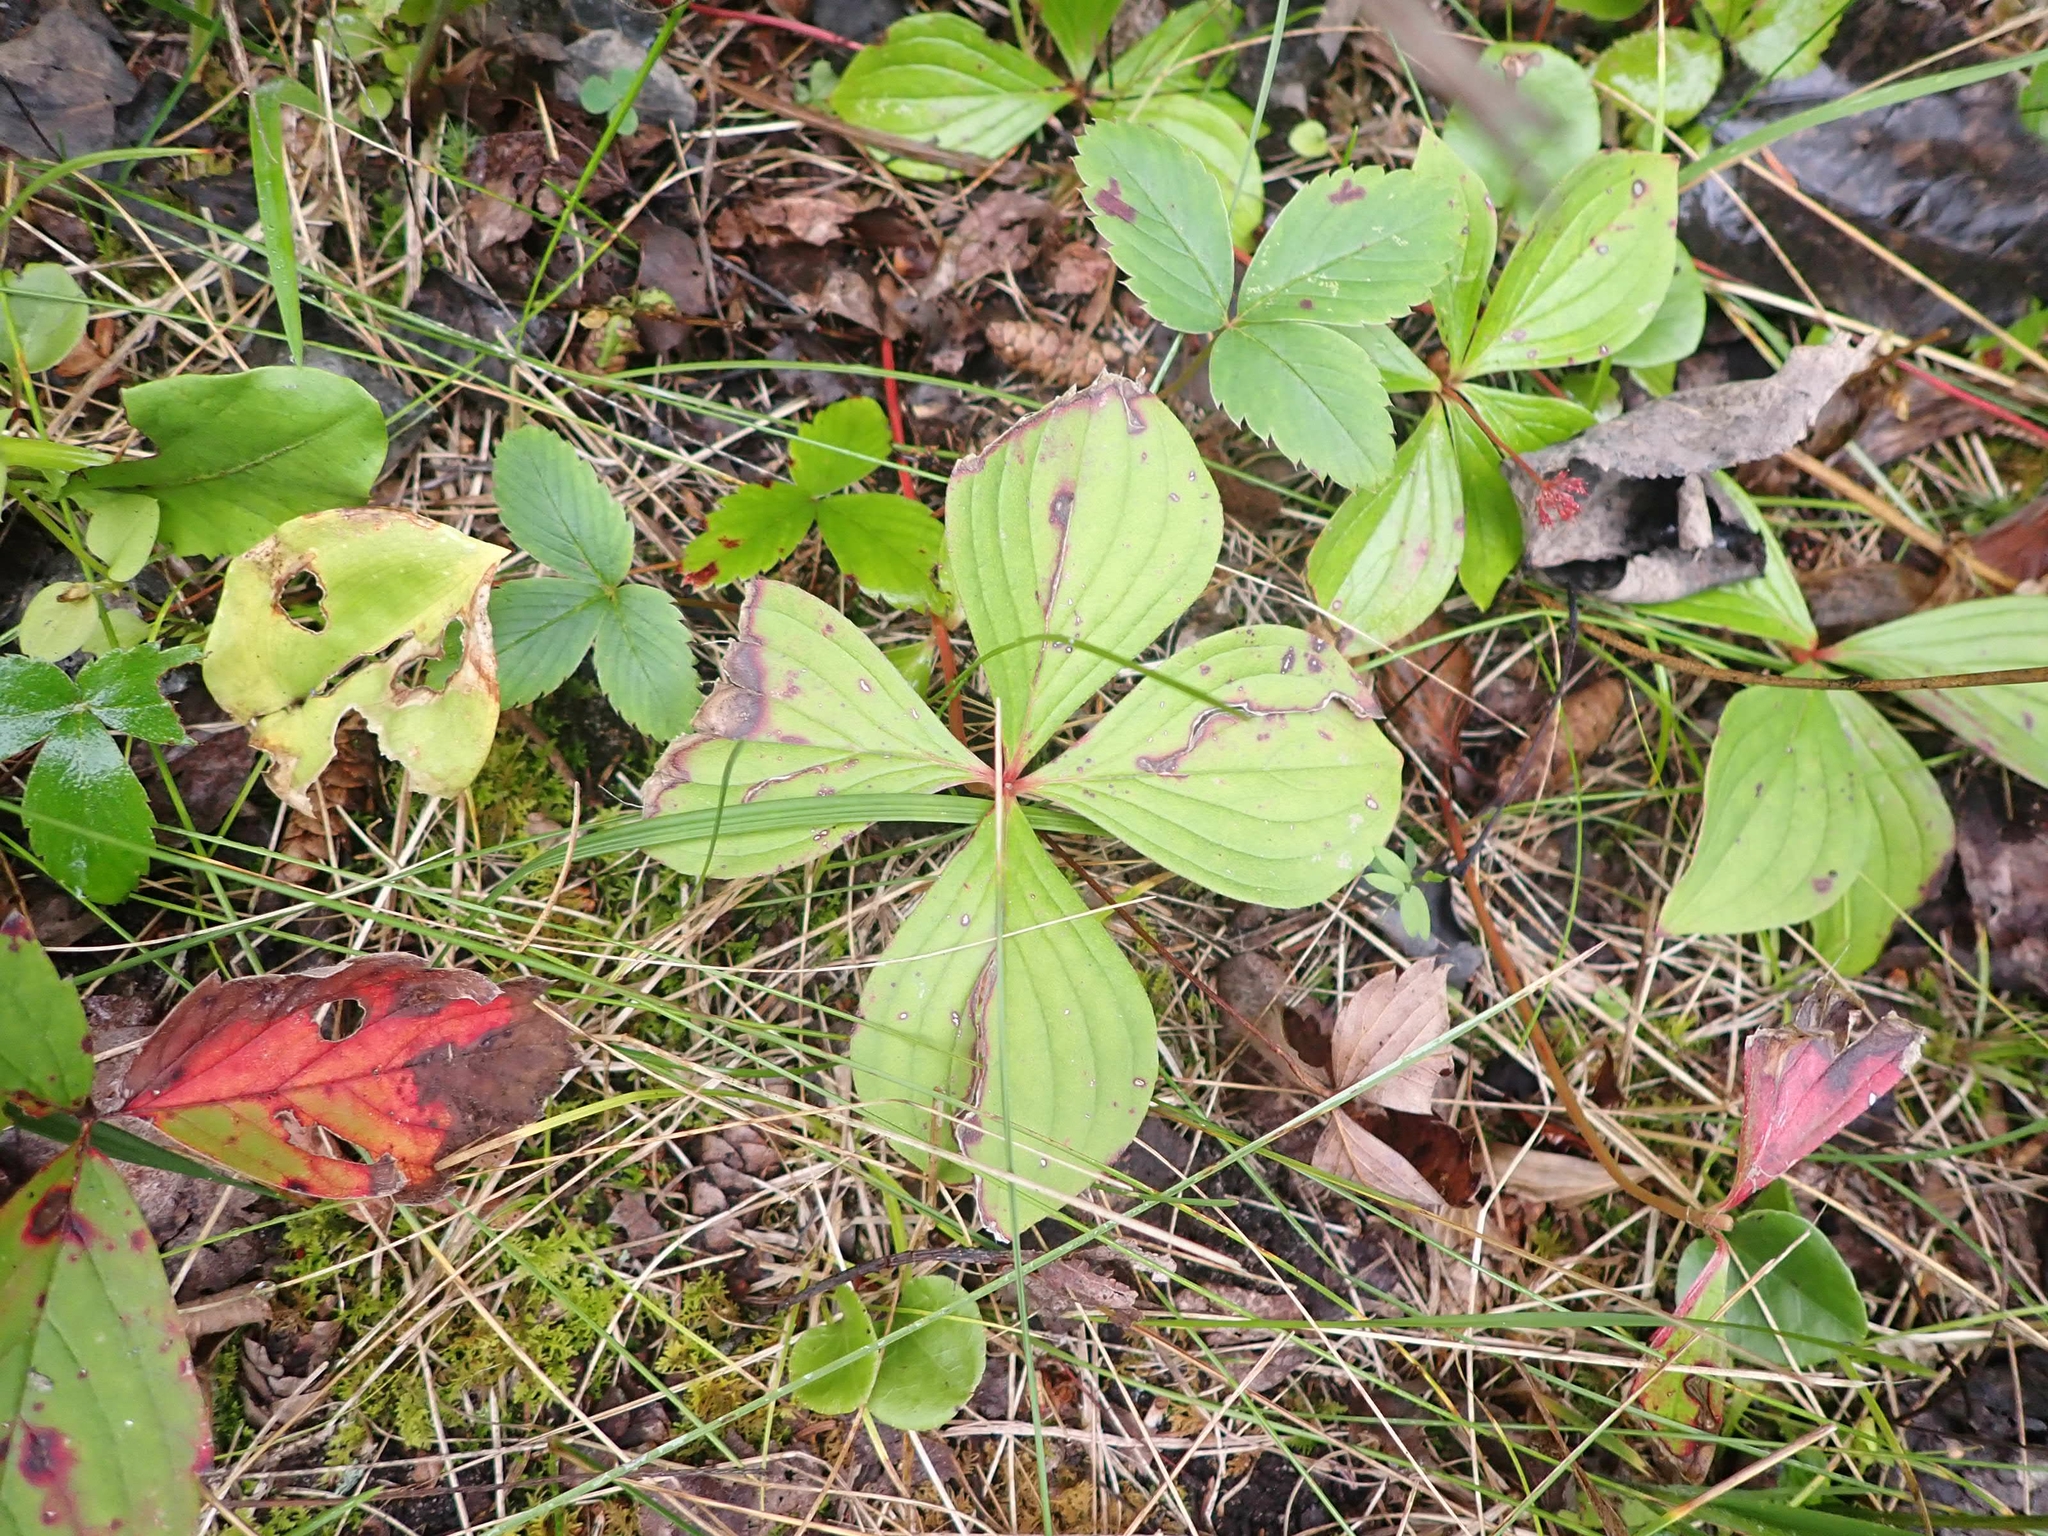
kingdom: Plantae
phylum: Tracheophyta
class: Magnoliopsida
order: Cornales
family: Cornaceae
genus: Cornus
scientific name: Cornus canadensis
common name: Creeping dogwood
